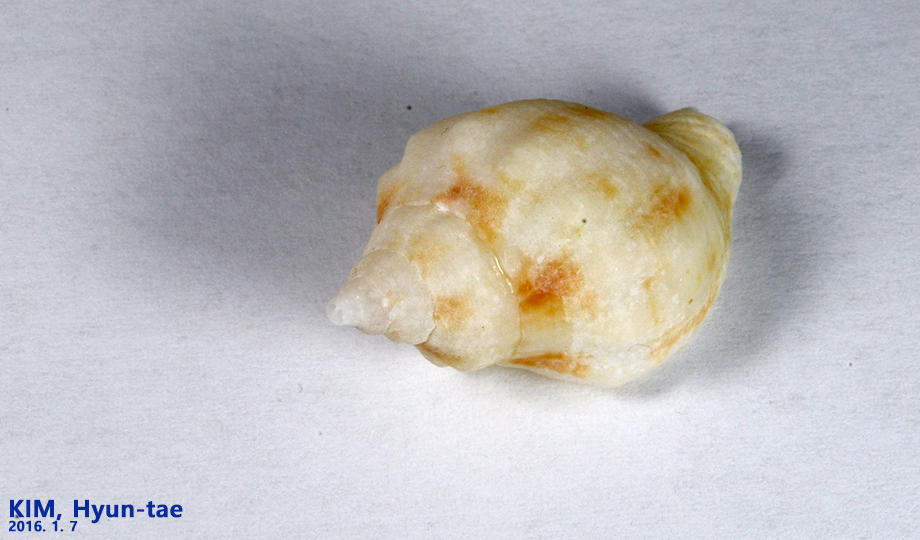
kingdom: Animalia
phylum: Mollusca
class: Gastropoda
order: Neogastropoda
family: Buccinidae
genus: Siphonalia
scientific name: Siphonalia cassidariaeformis
